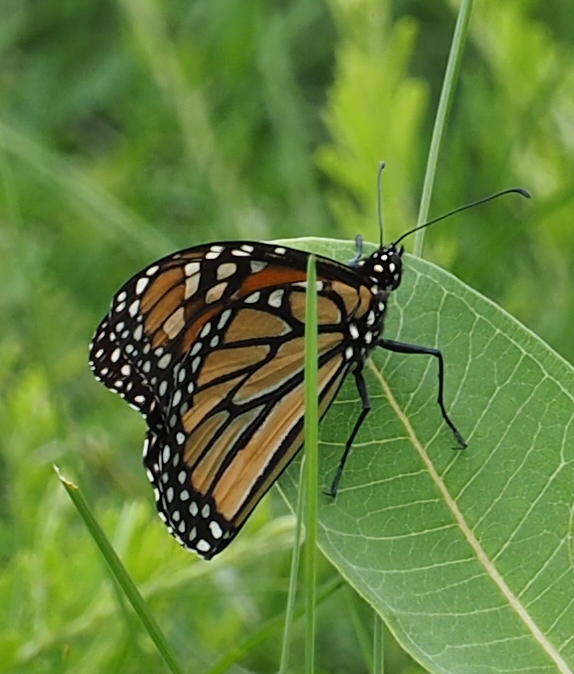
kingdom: Animalia
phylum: Arthropoda
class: Insecta
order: Lepidoptera
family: Nymphalidae
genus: Danaus
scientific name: Danaus plexippus
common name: Monarch
